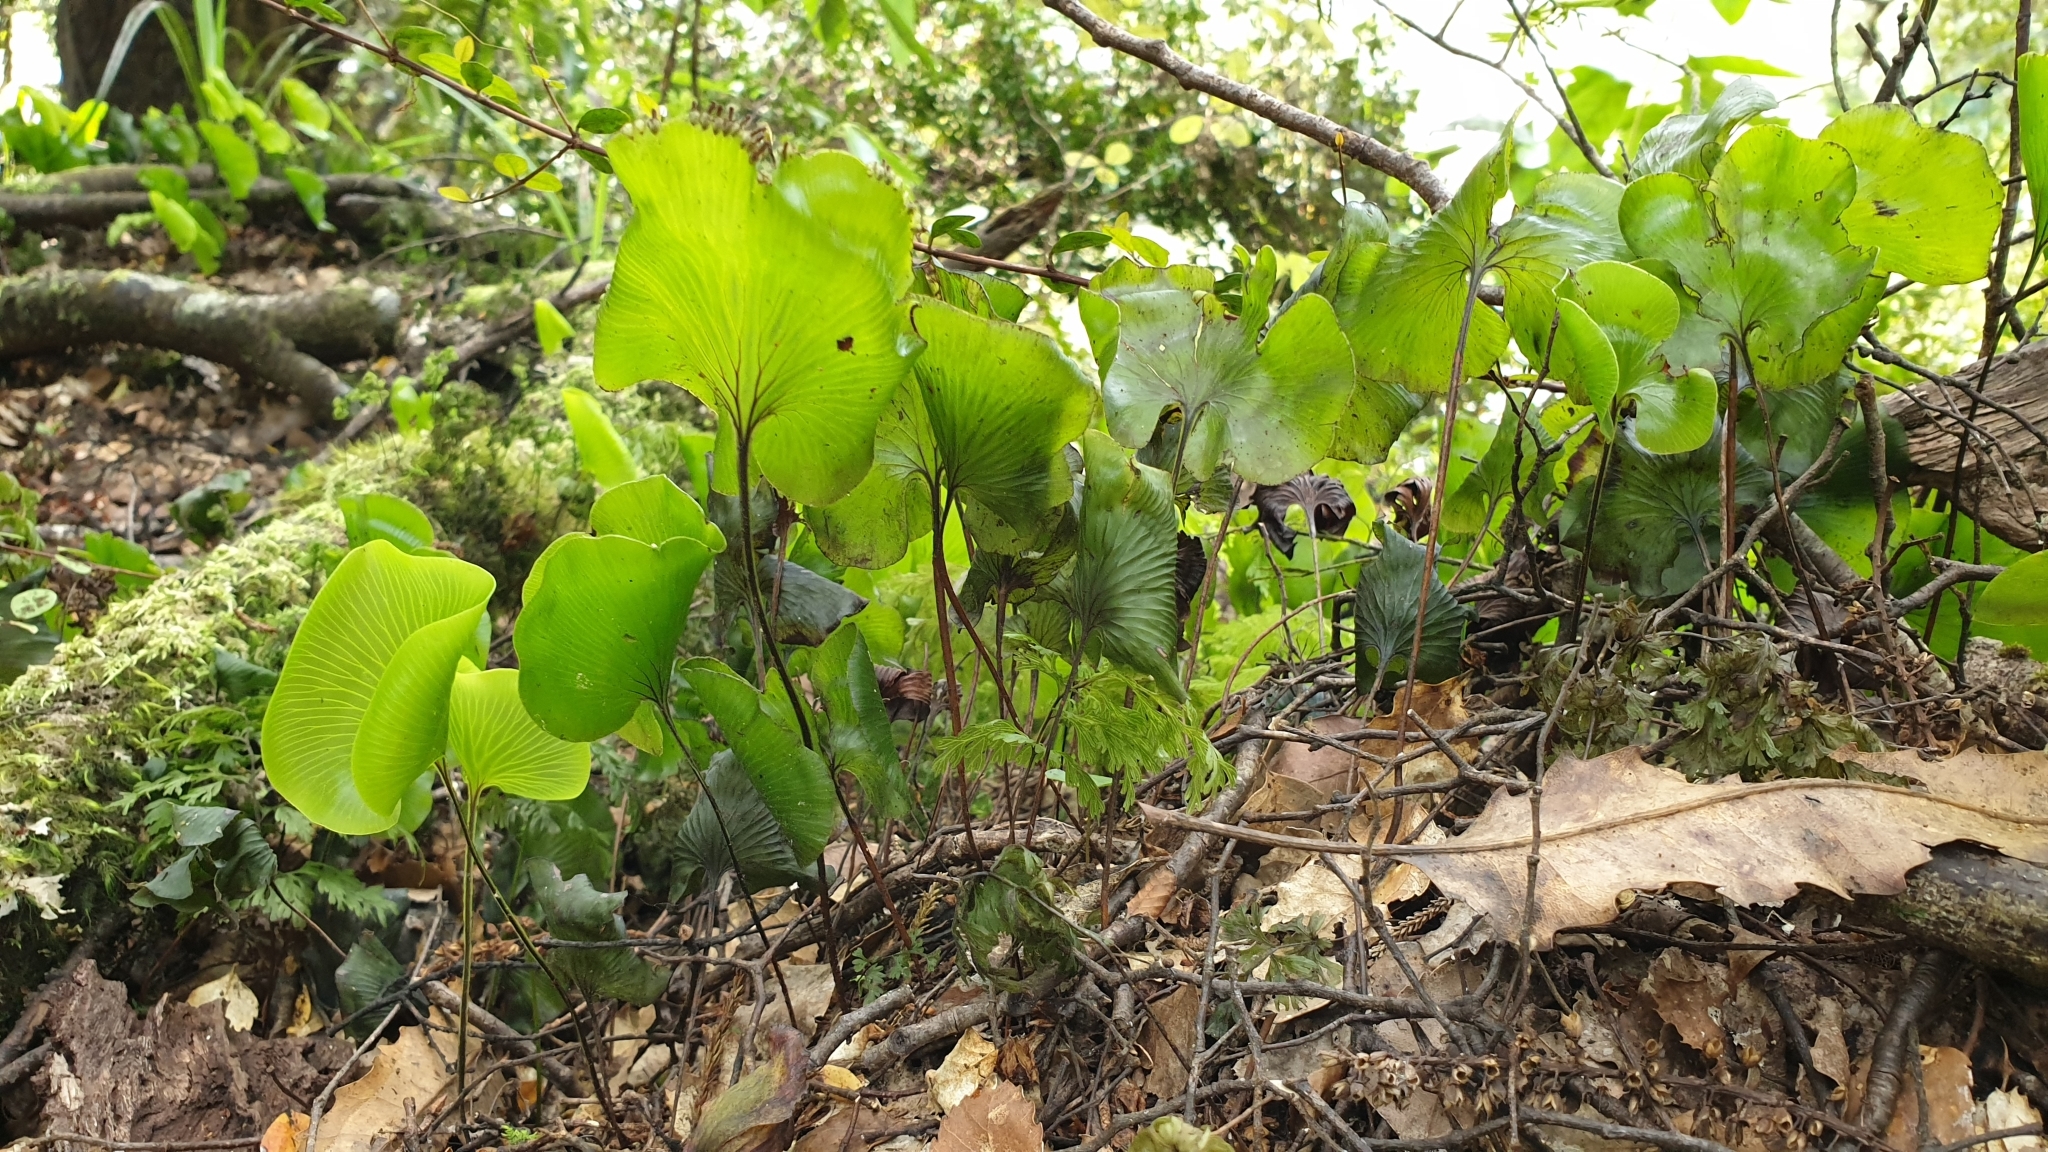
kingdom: Plantae
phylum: Tracheophyta
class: Polypodiopsida
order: Hymenophyllales
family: Hymenophyllaceae
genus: Hymenophyllum
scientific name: Hymenophyllum nephrophyllum
